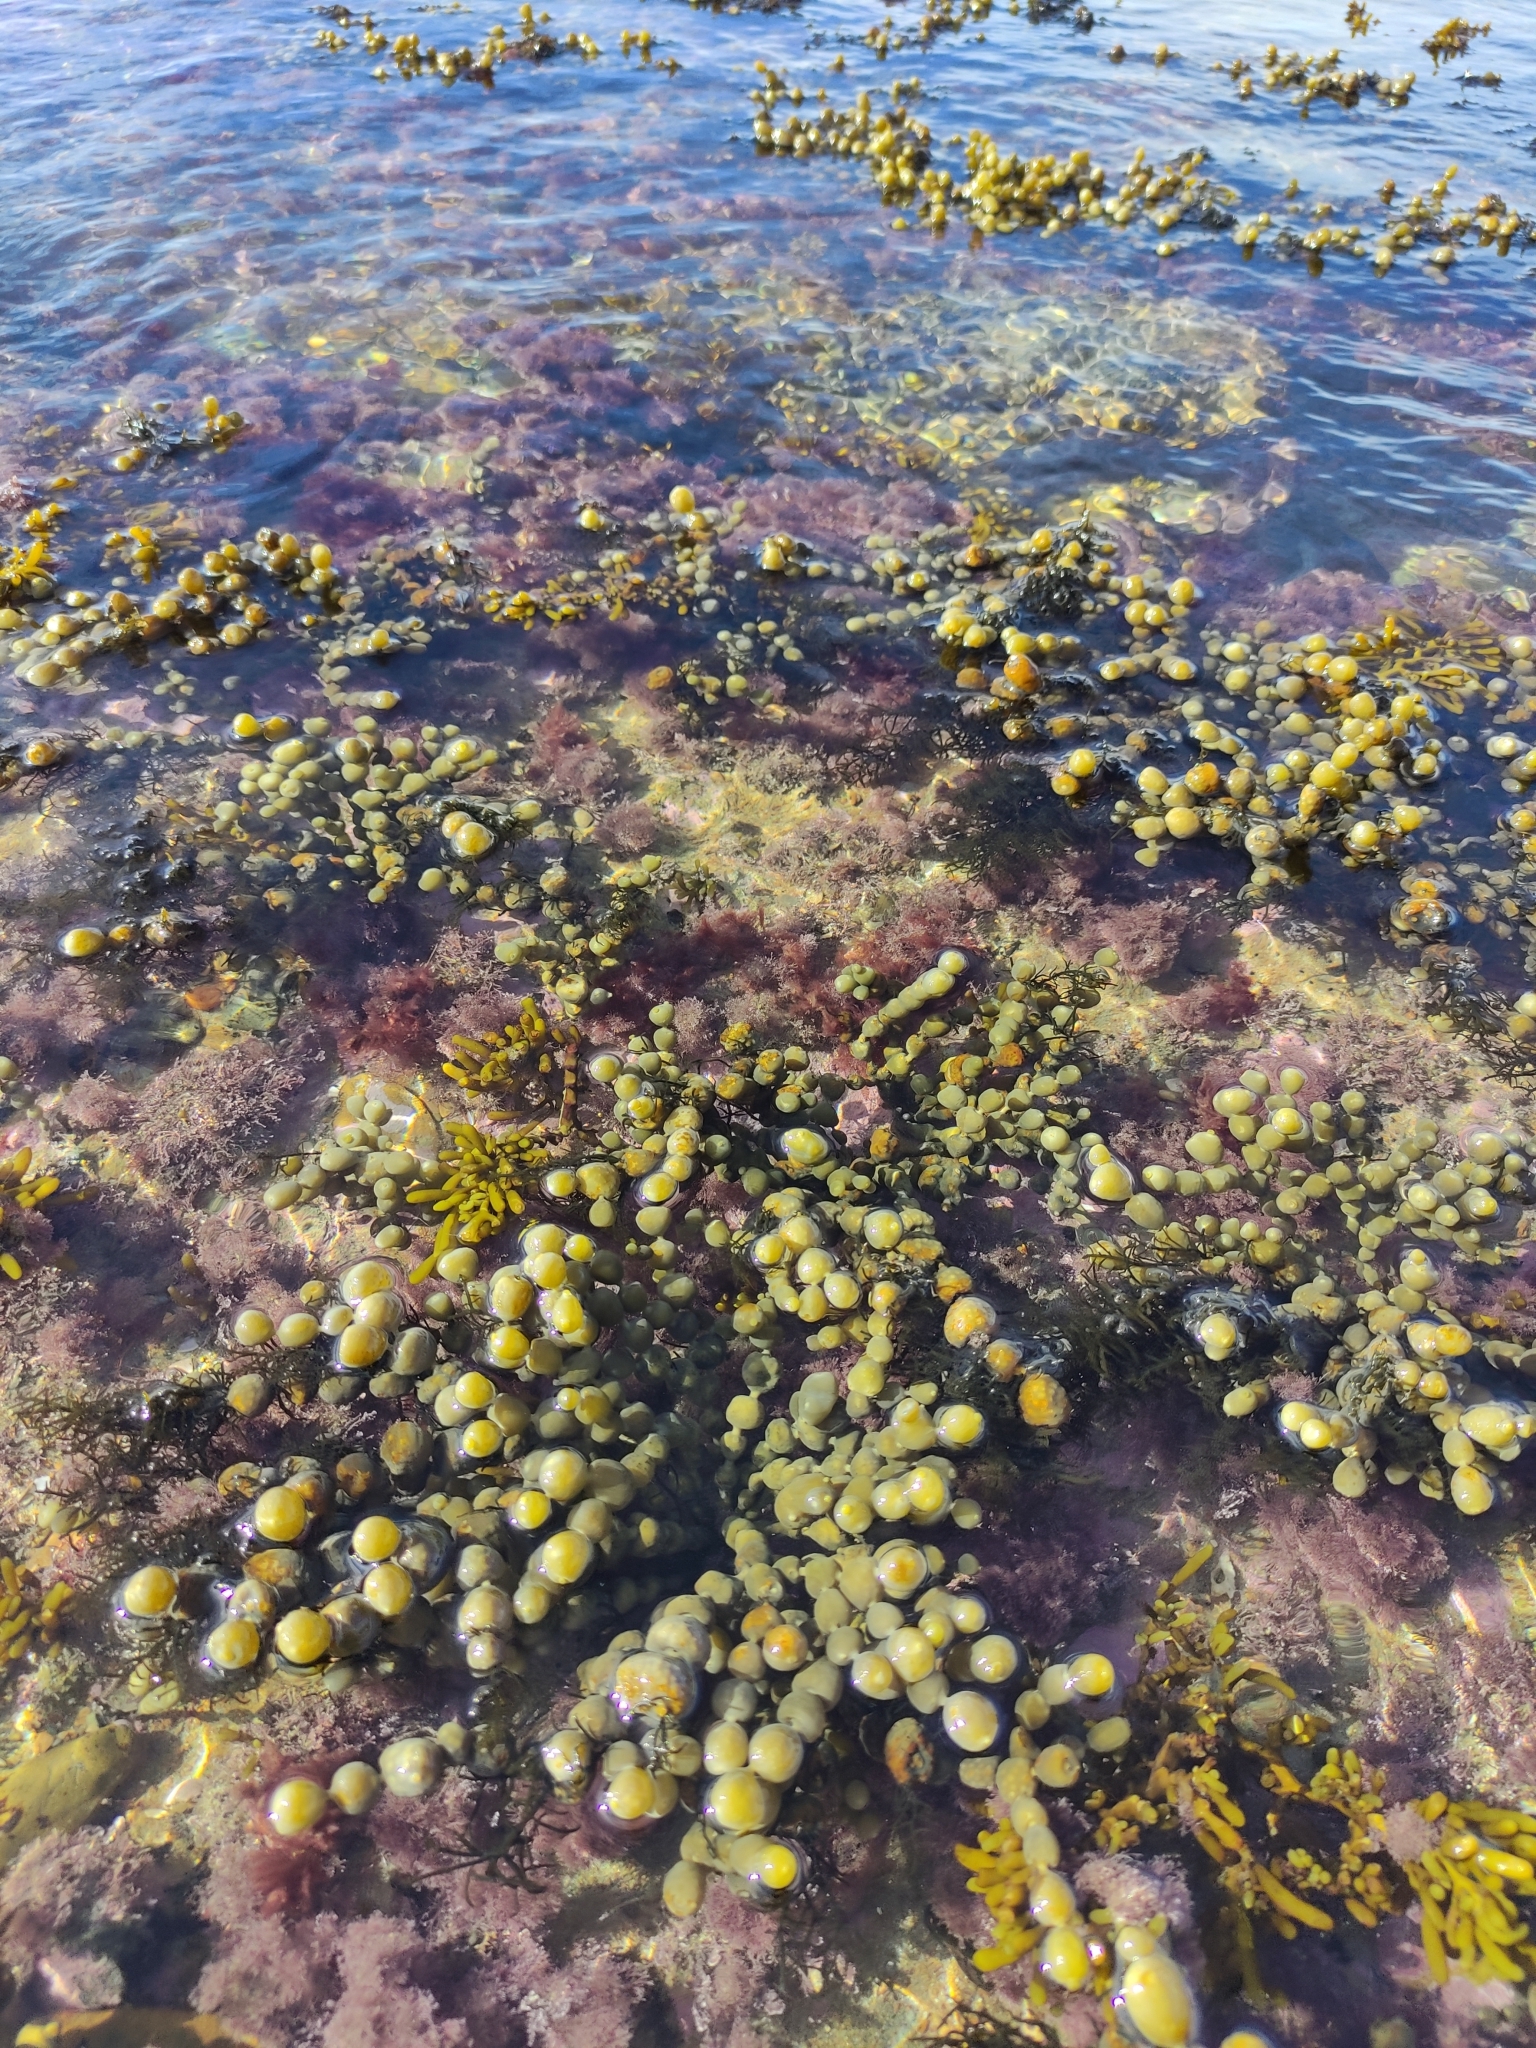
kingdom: Chromista
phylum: Ochrophyta
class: Phaeophyceae
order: Fucales
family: Hormosiraceae
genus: Hormosira
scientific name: Hormosira banksii
